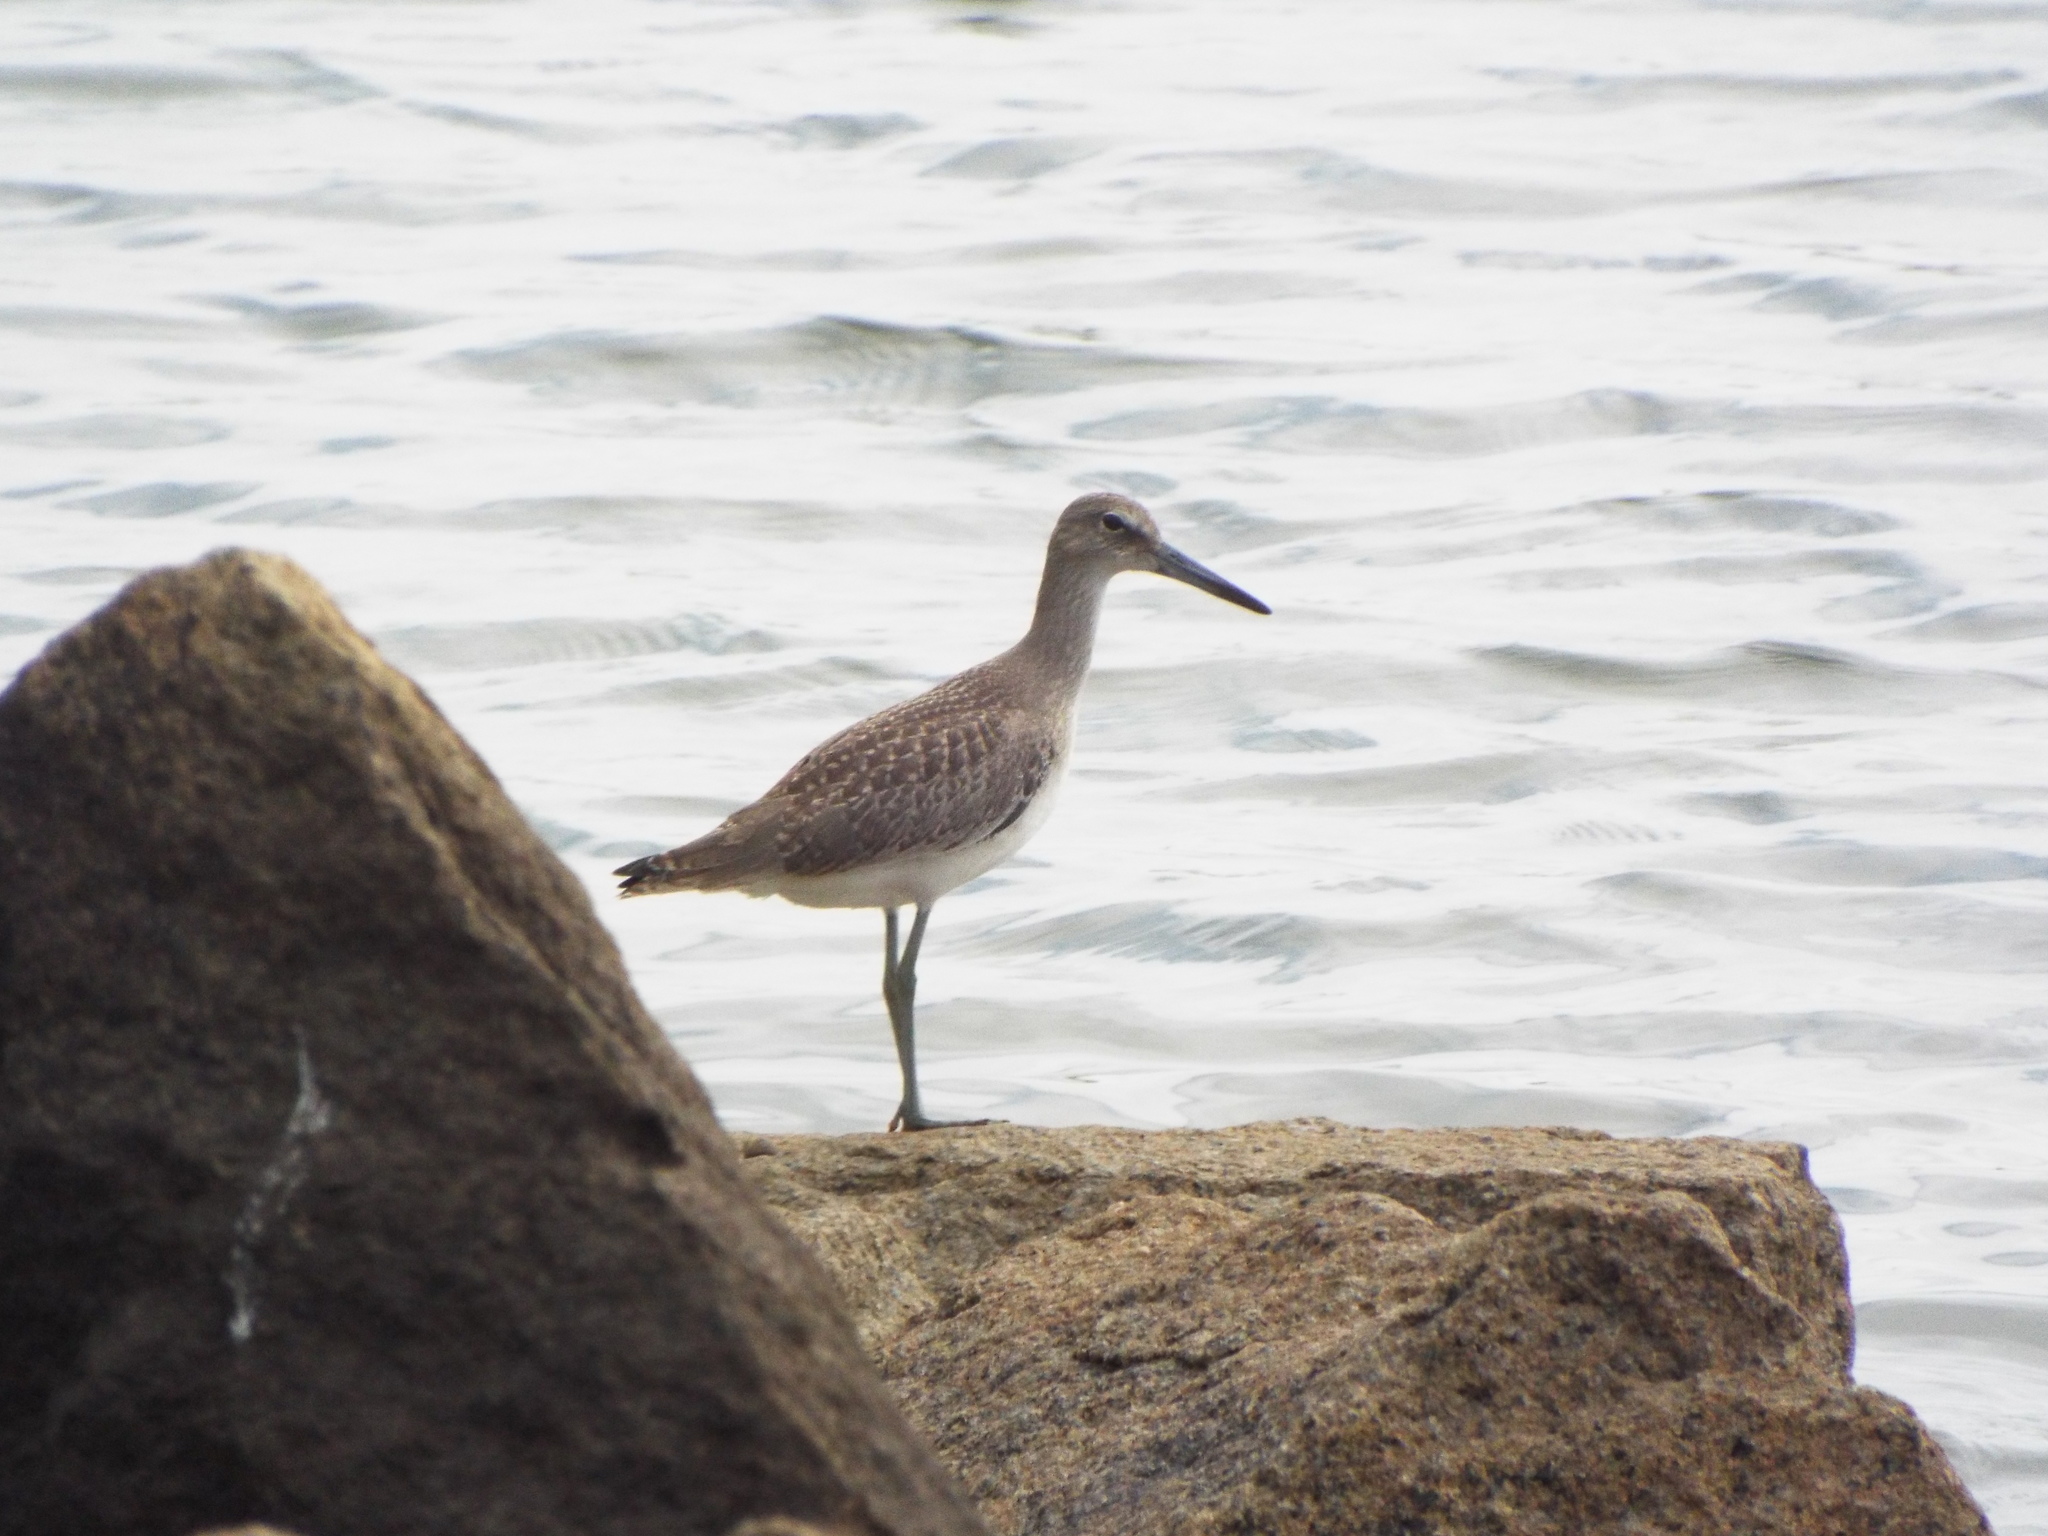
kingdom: Animalia
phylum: Chordata
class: Aves
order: Charadriiformes
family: Scolopacidae
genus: Tringa
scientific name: Tringa semipalmata
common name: Willet
